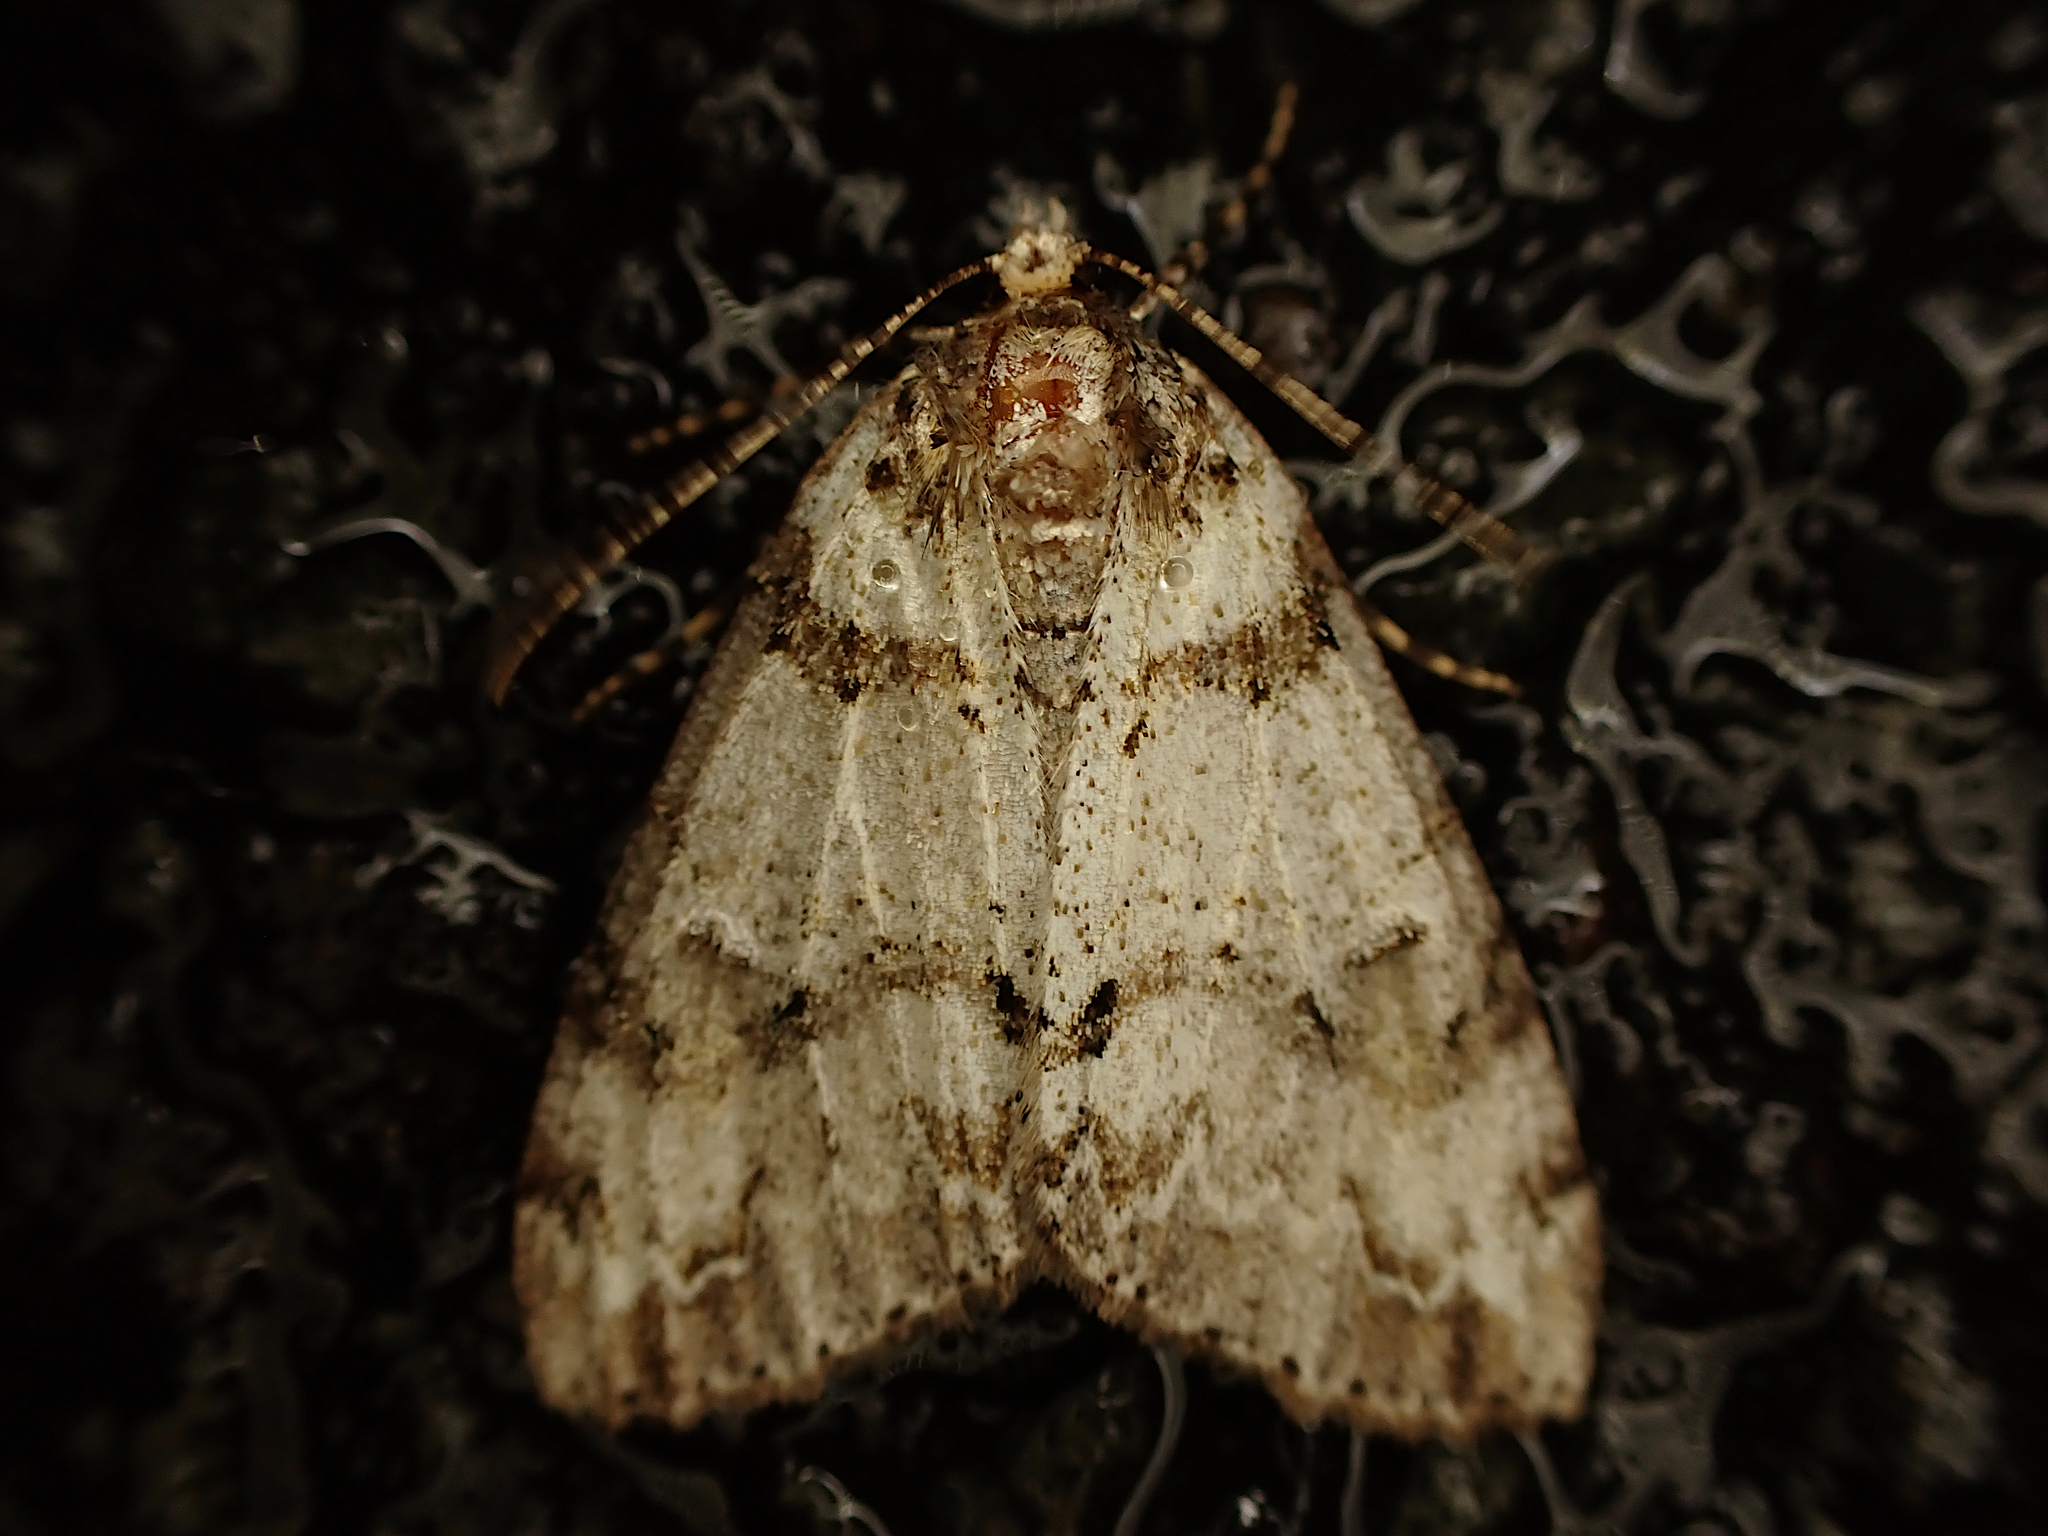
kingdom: Animalia
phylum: Arthropoda
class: Insecta
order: Lepidoptera
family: Geometridae
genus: Pseudocoremia
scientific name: Pseudocoremia suavis
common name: Common forest looper
